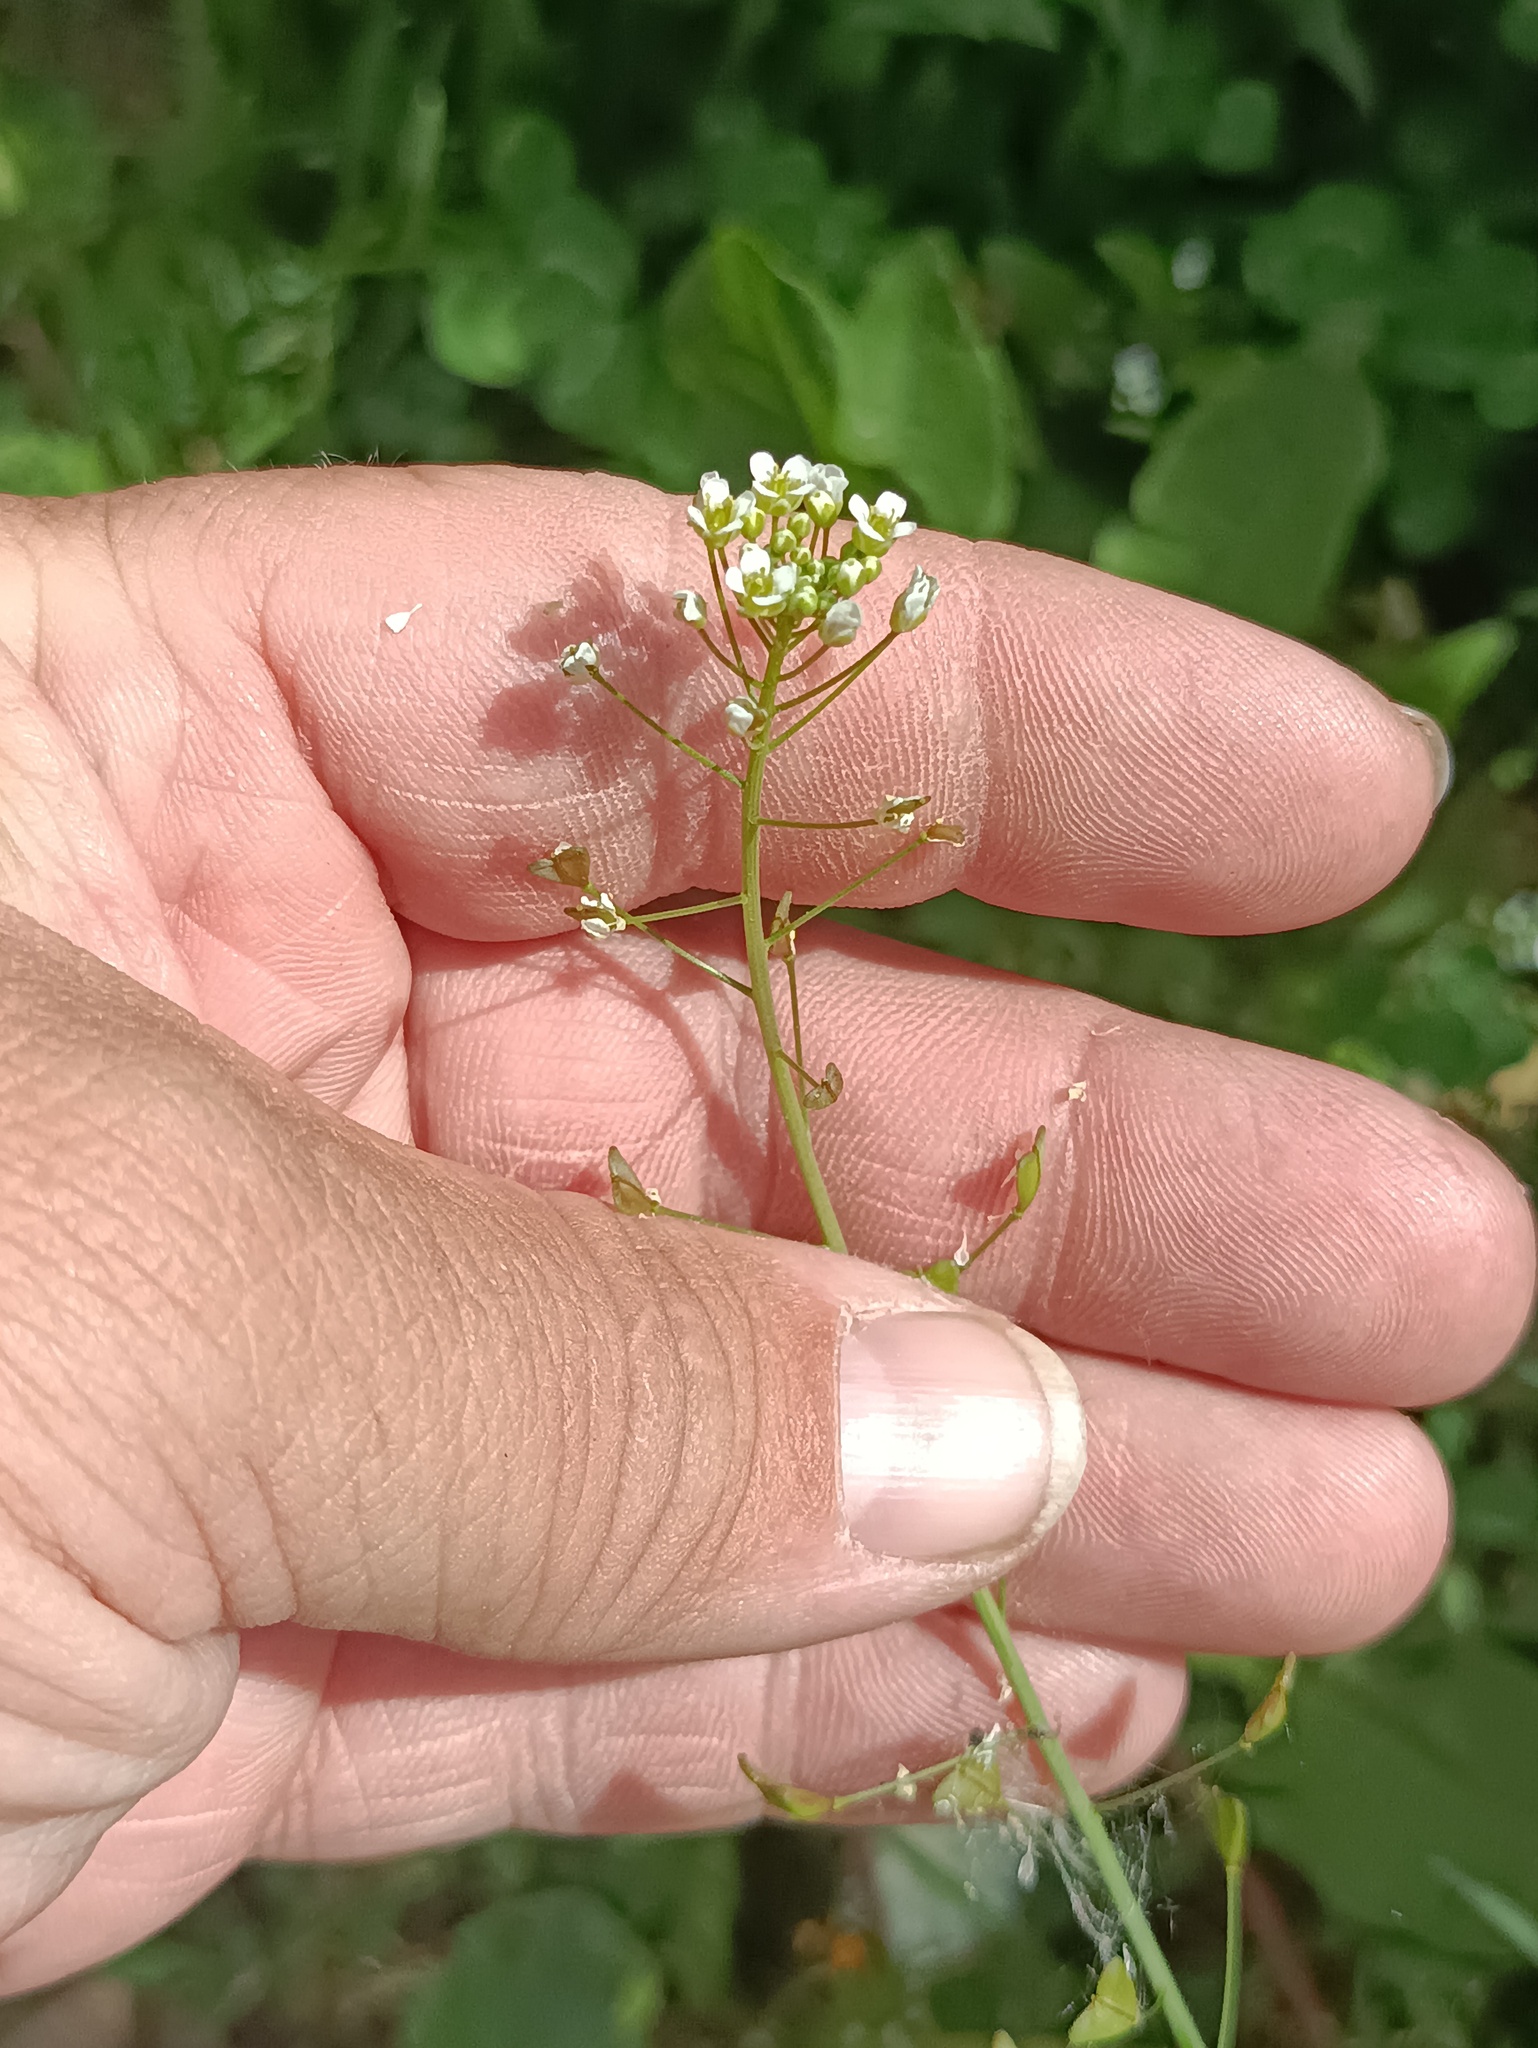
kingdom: Plantae
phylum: Tracheophyta
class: Magnoliopsida
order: Brassicales
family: Brassicaceae
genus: Capsella
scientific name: Capsella bursa-pastoris
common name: Shepherd's purse
